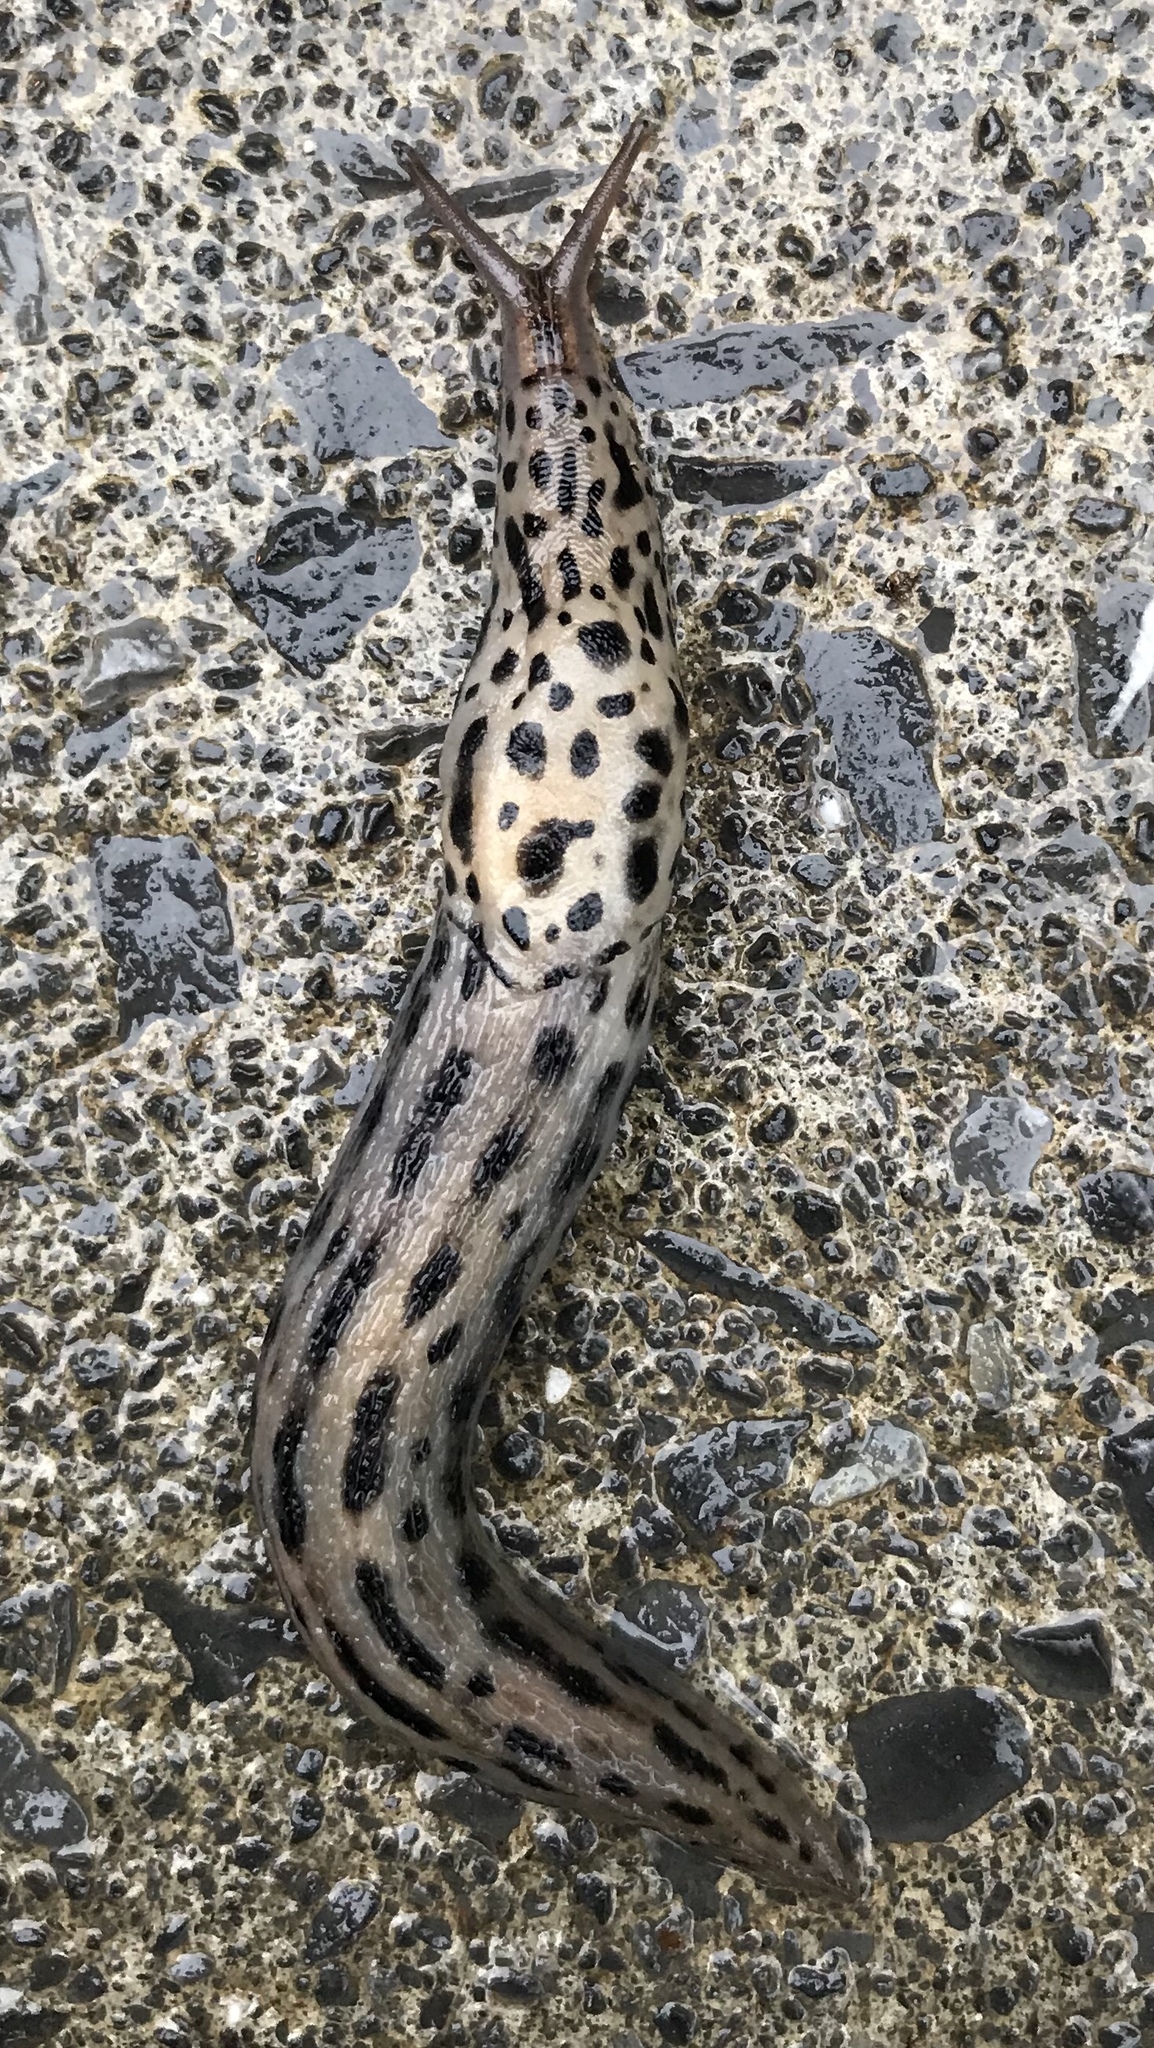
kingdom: Animalia
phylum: Mollusca
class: Gastropoda
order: Stylommatophora
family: Limacidae
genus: Limax
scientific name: Limax maximus
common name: Great grey slug
